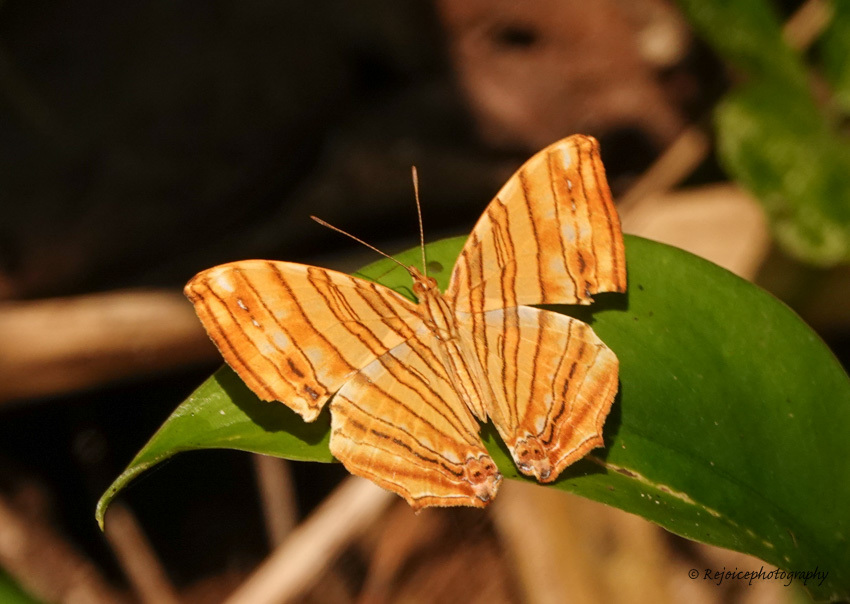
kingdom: Animalia
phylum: Arthropoda
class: Insecta
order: Lepidoptera
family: Nymphalidae
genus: Chersonesia
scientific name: Chersonesia risa
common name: Common maplet
